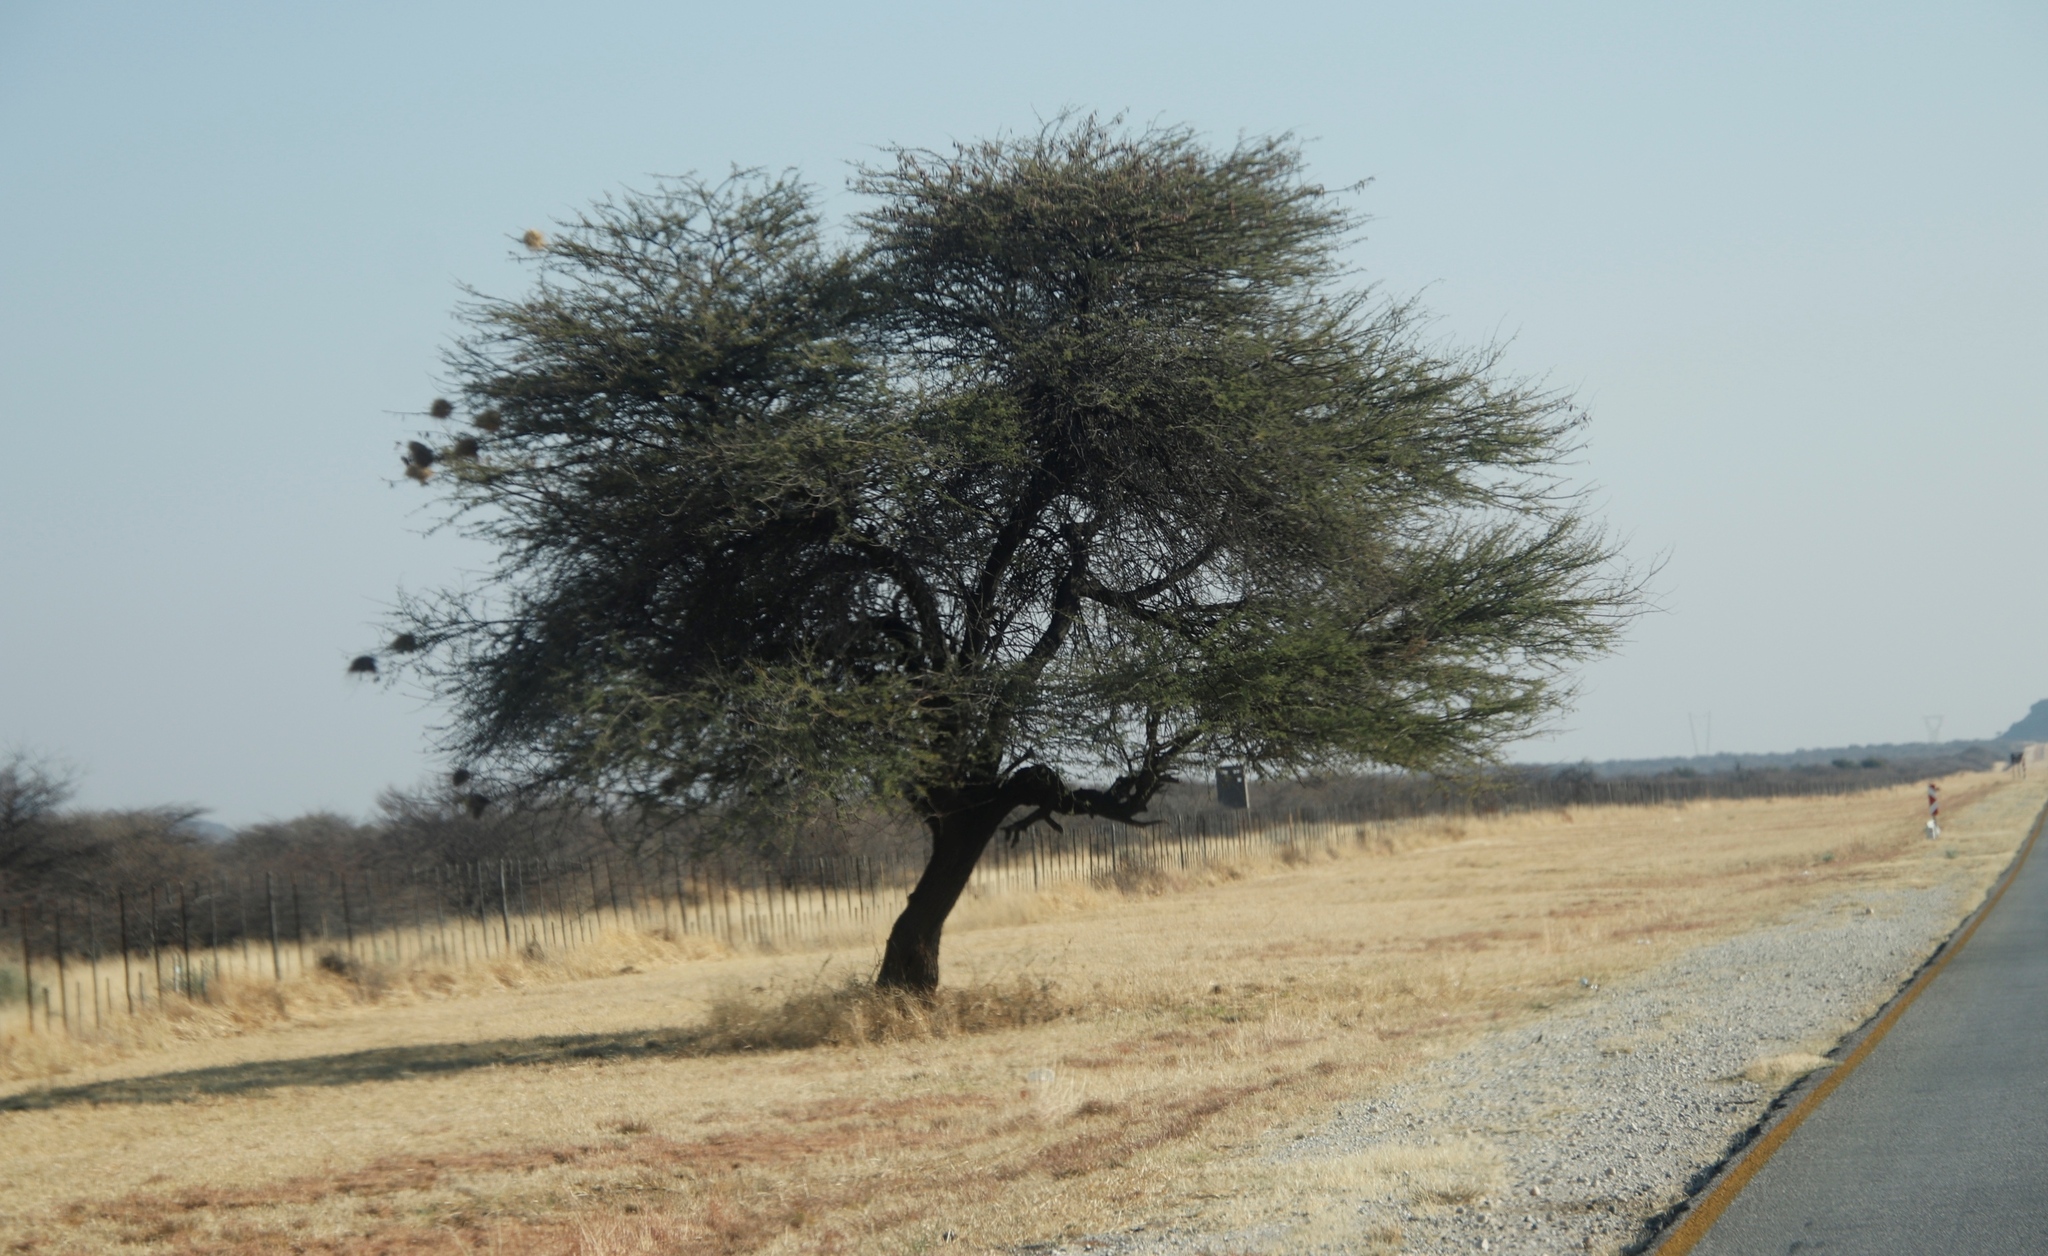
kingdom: Plantae
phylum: Tracheophyta
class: Magnoliopsida
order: Fabales
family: Fabaceae
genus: Vachellia
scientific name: Vachellia luederitzii
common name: Bastard umbrella thorn
